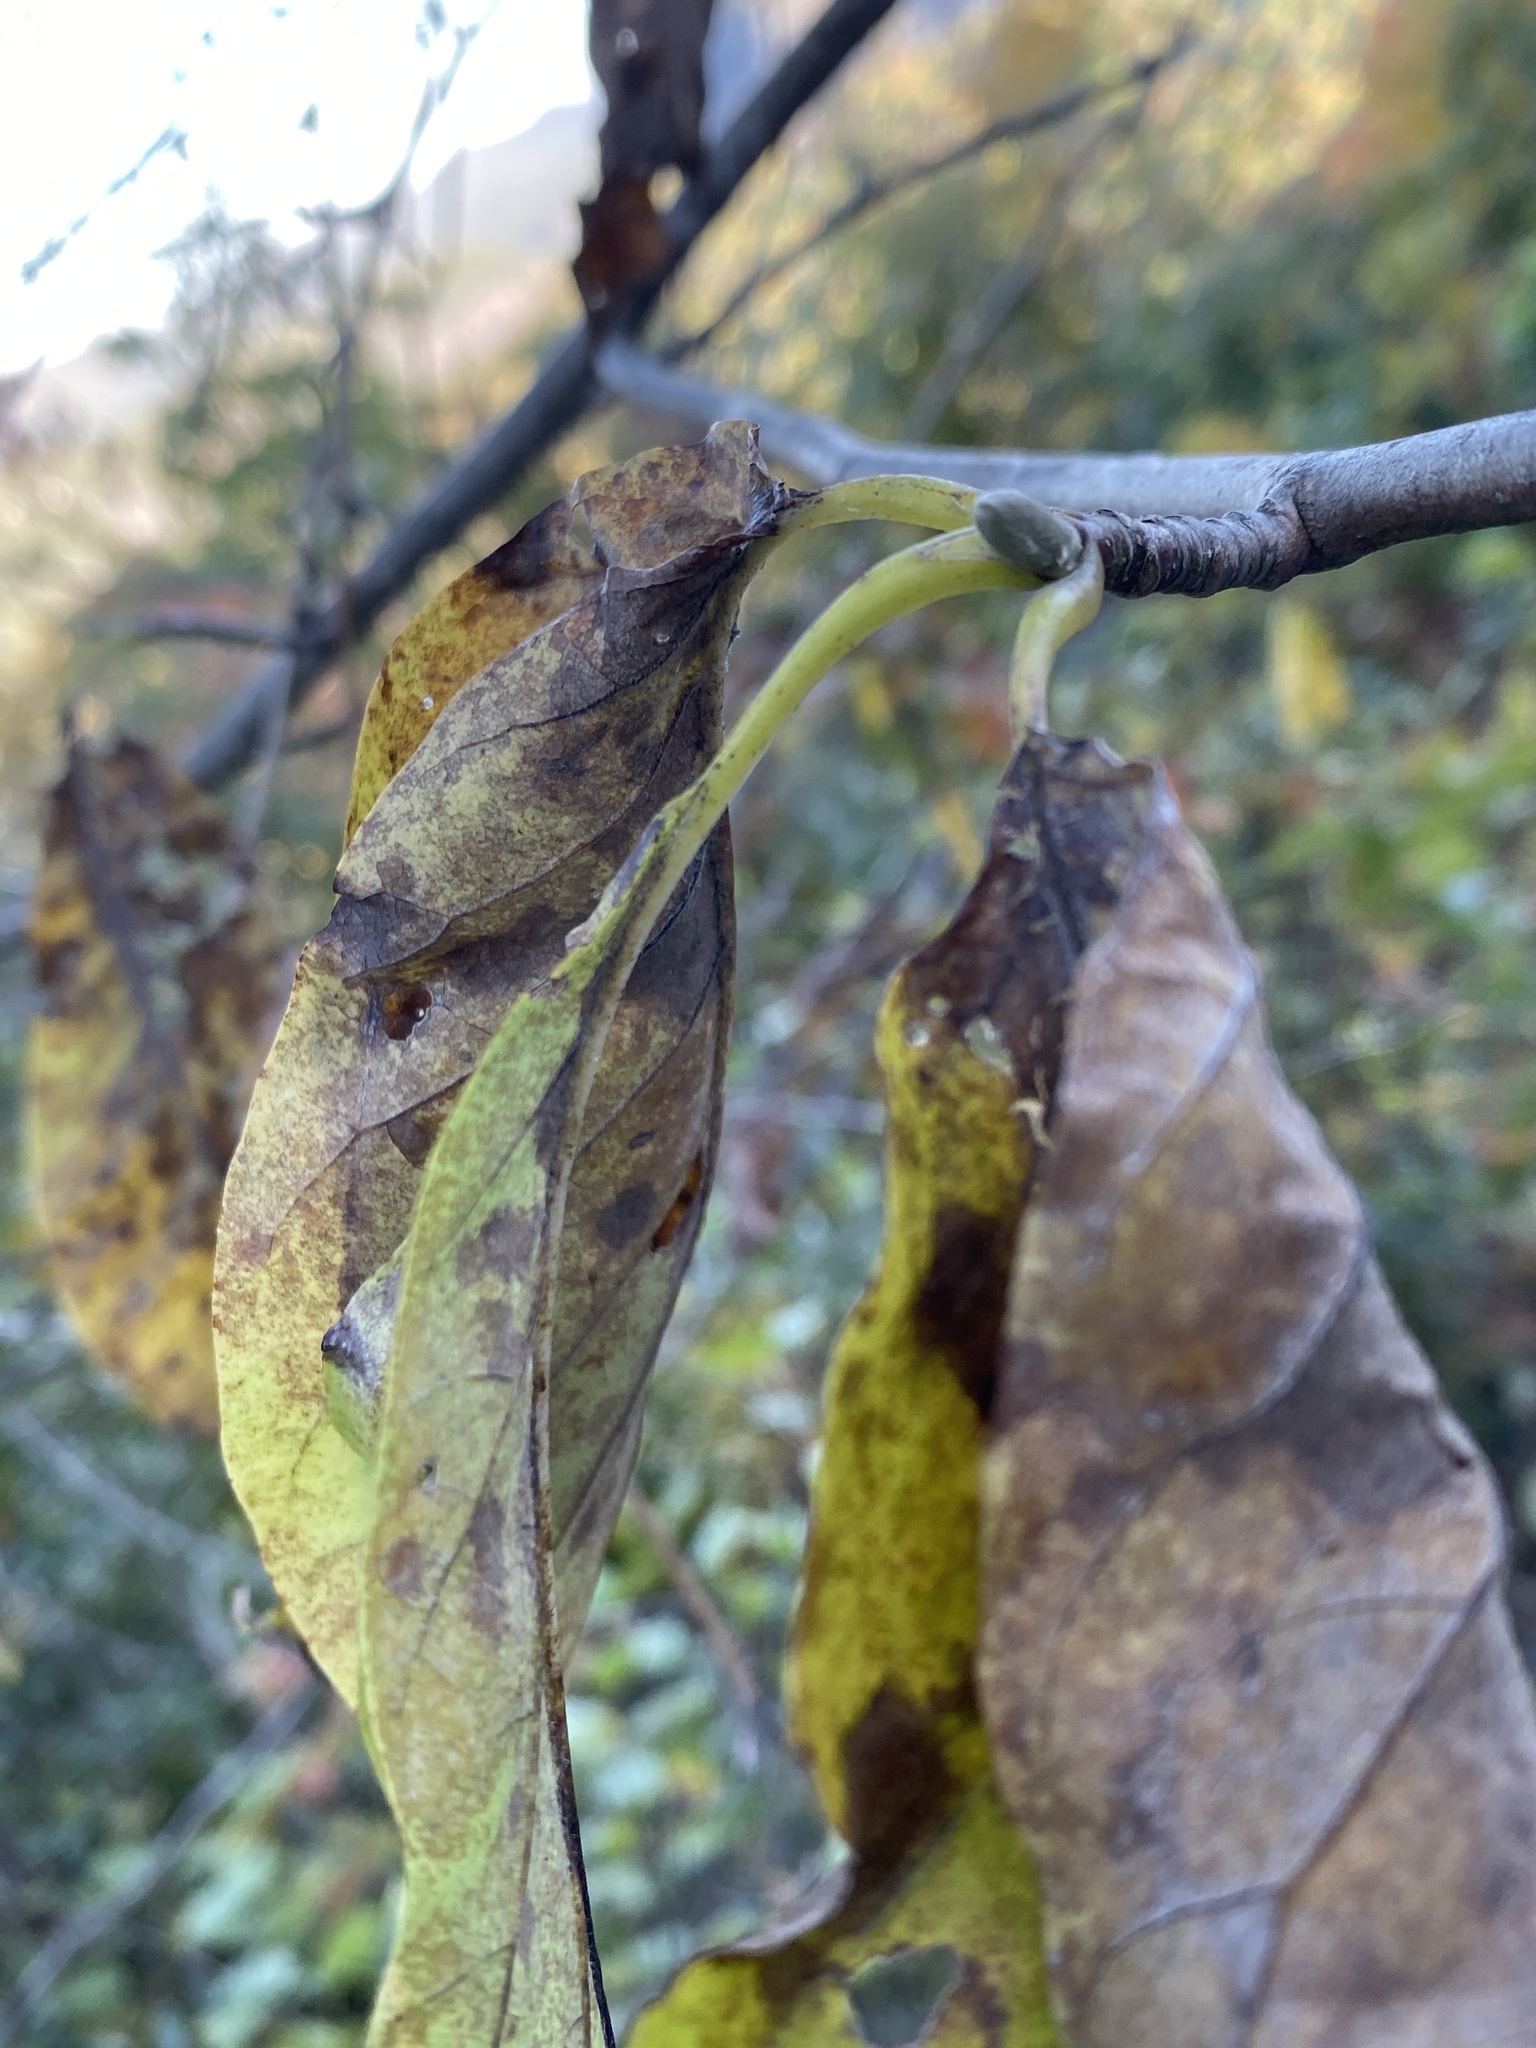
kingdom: Plantae
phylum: Tracheophyta
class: Magnoliopsida
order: Magnoliales
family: Magnoliaceae
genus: Magnolia
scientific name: Magnolia acuminata
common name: Cucumber magnolia
